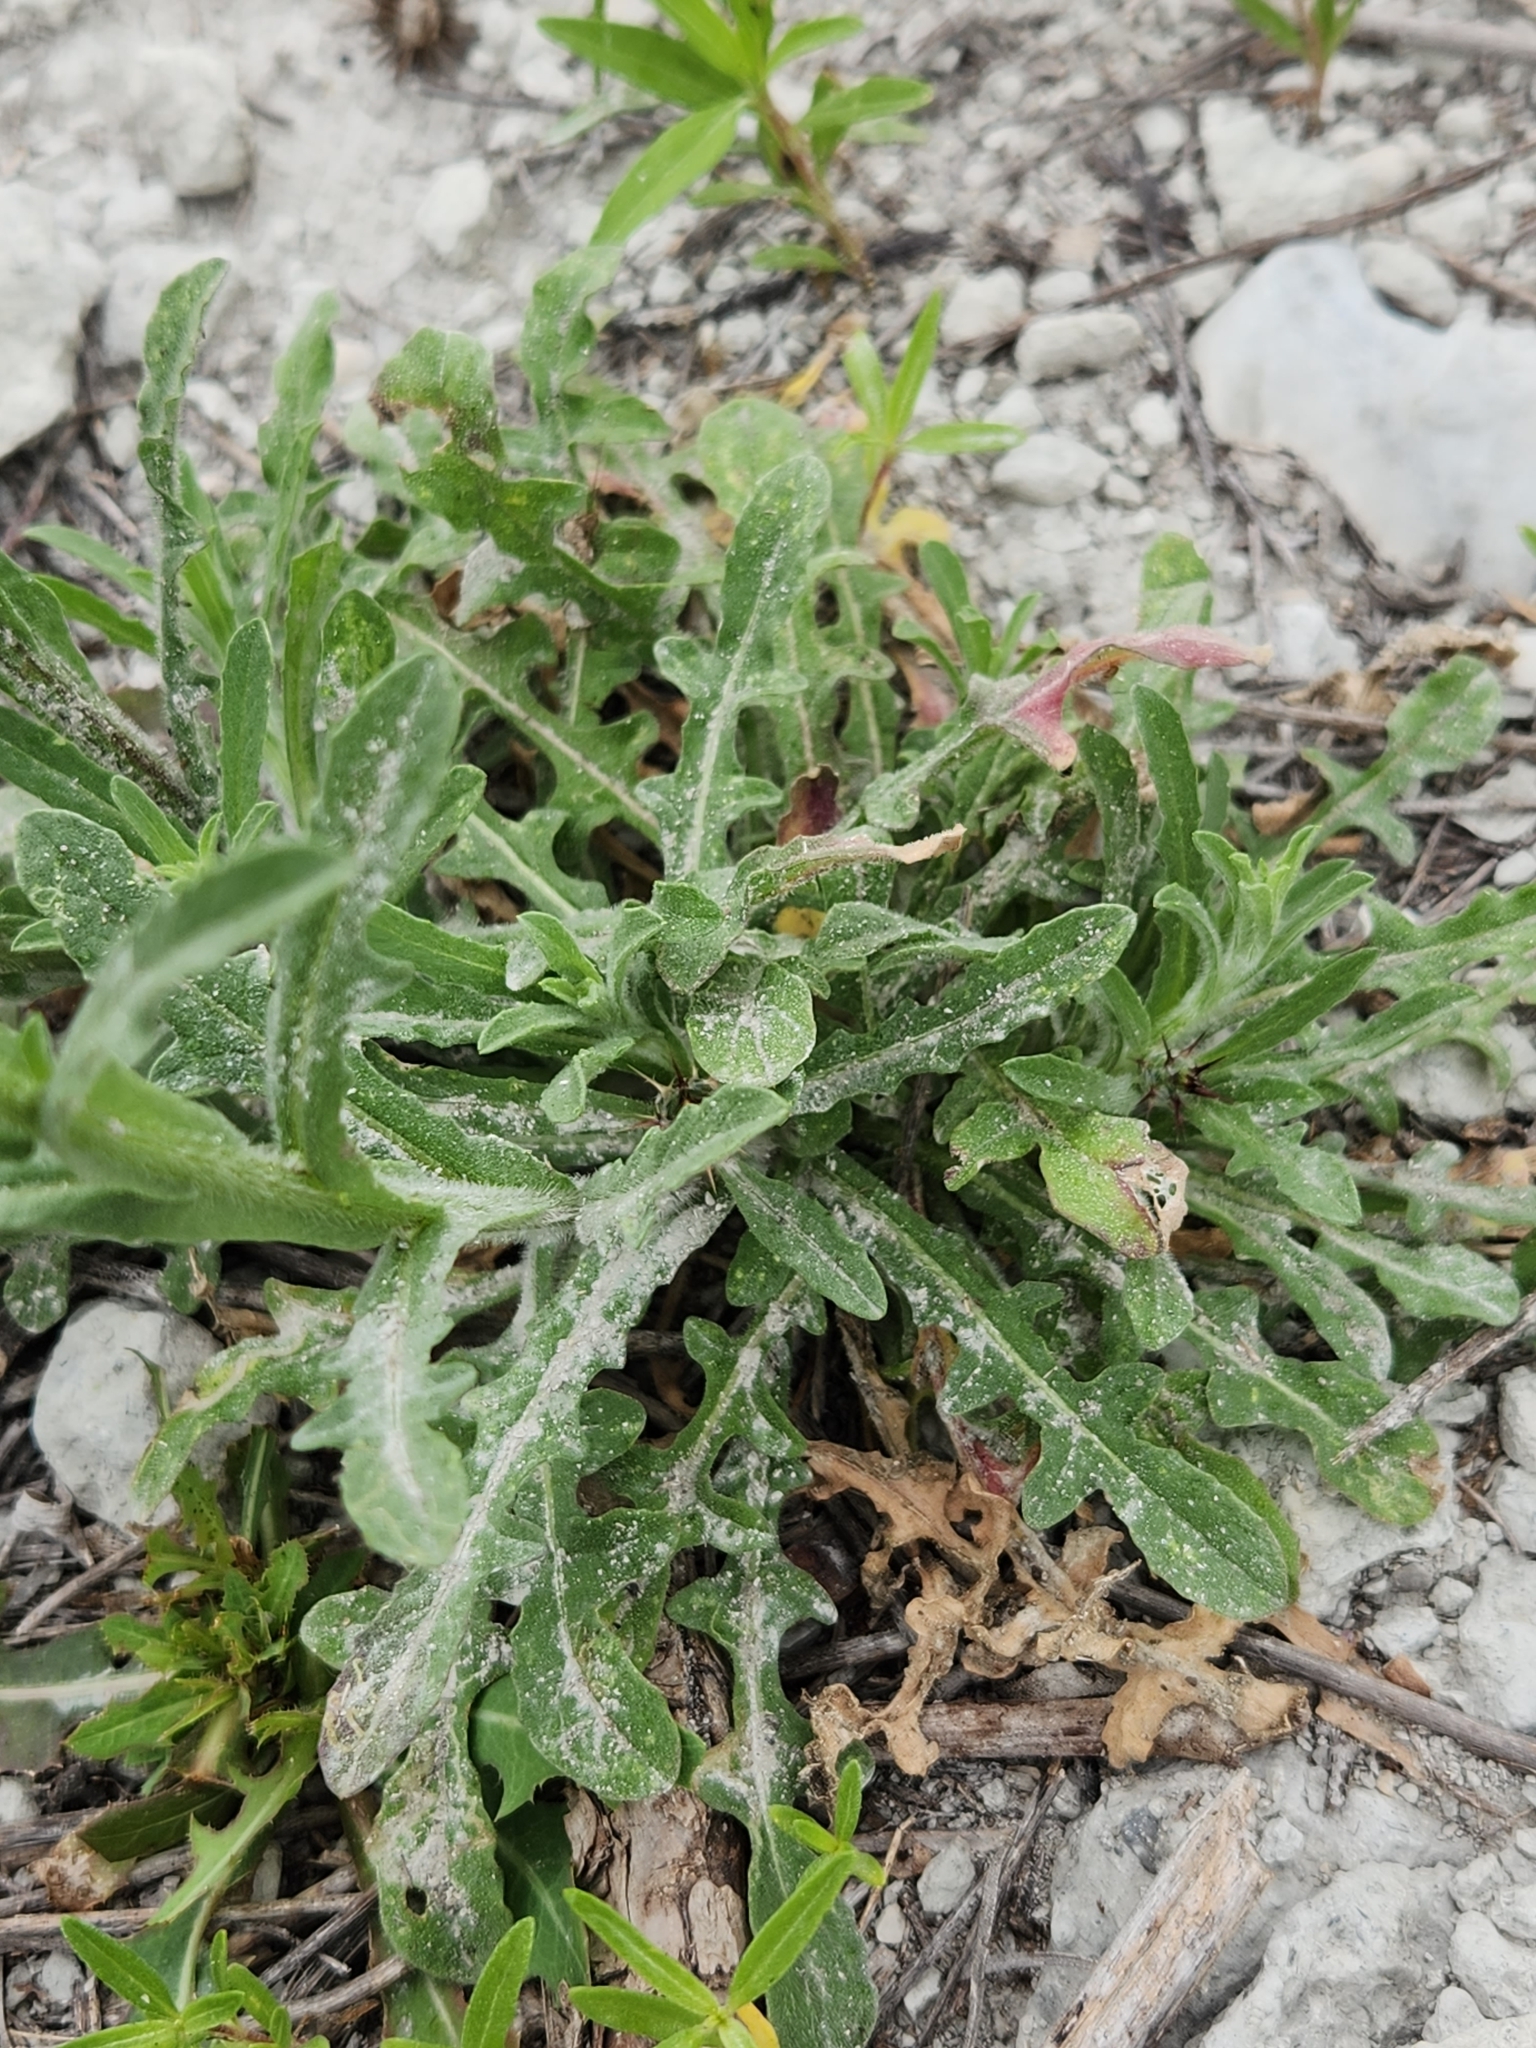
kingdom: Plantae
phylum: Tracheophyta
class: Magnoliopsida
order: Asterales
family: Asteraceae
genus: Centaurea
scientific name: Centaurea melitensis
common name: Maltese star-thistle
